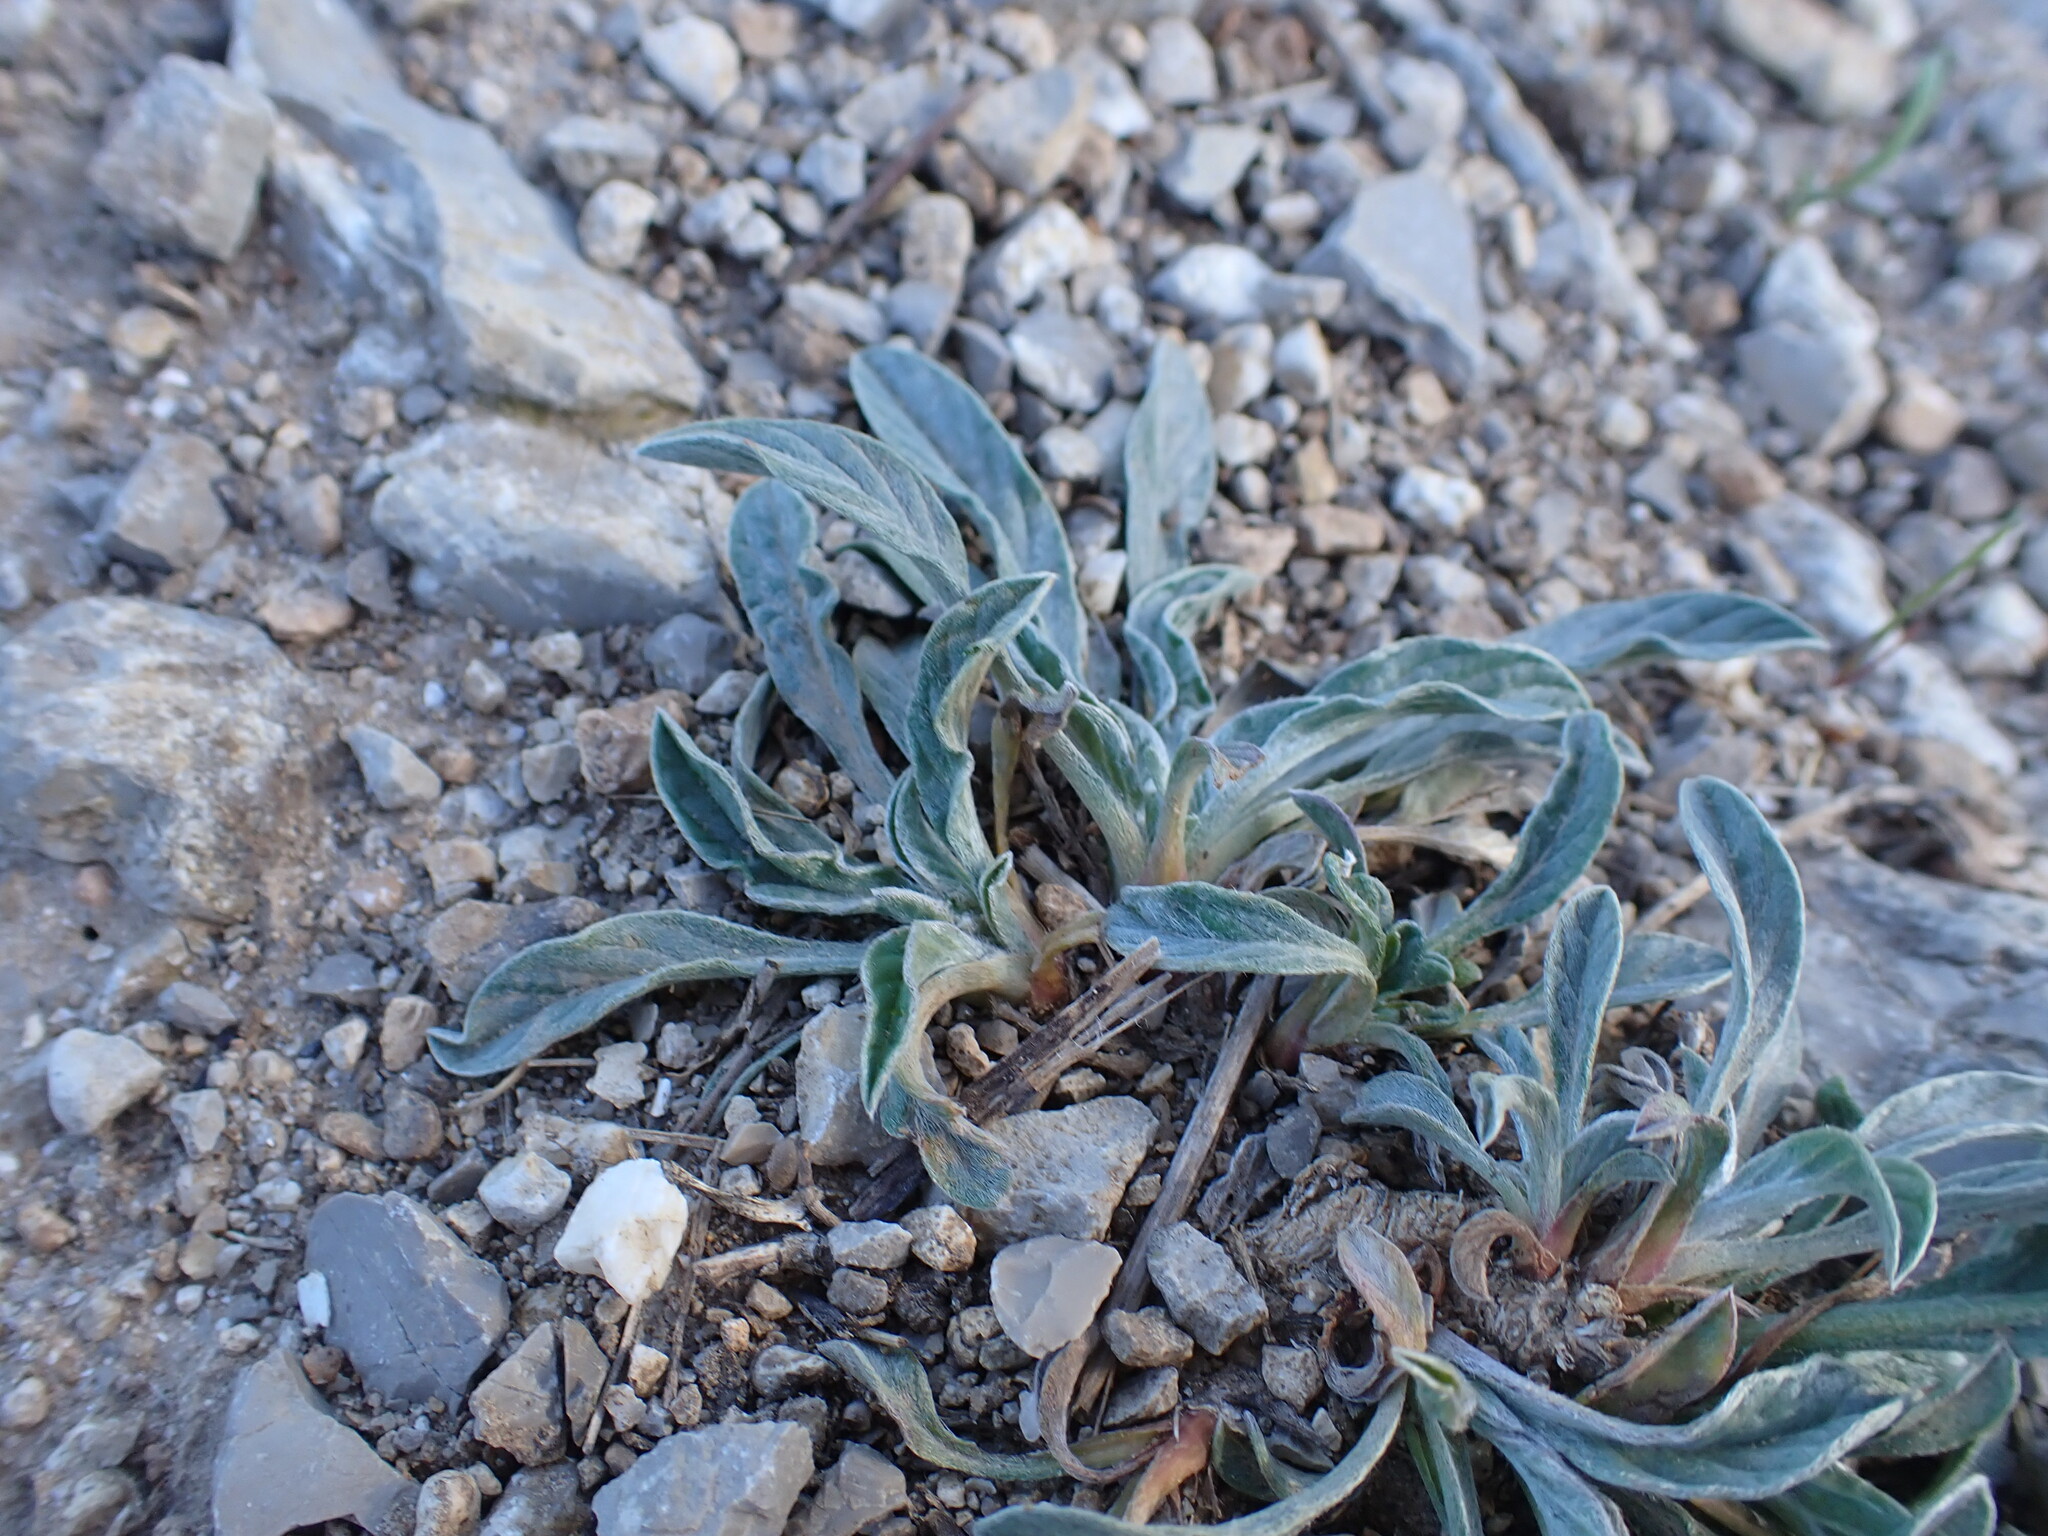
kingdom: Plantae
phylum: Tracheophyta
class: Magnoliopsida
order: Solanales
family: Convolvulaceae
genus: Convolvulus
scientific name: Convolvulus lineatus
